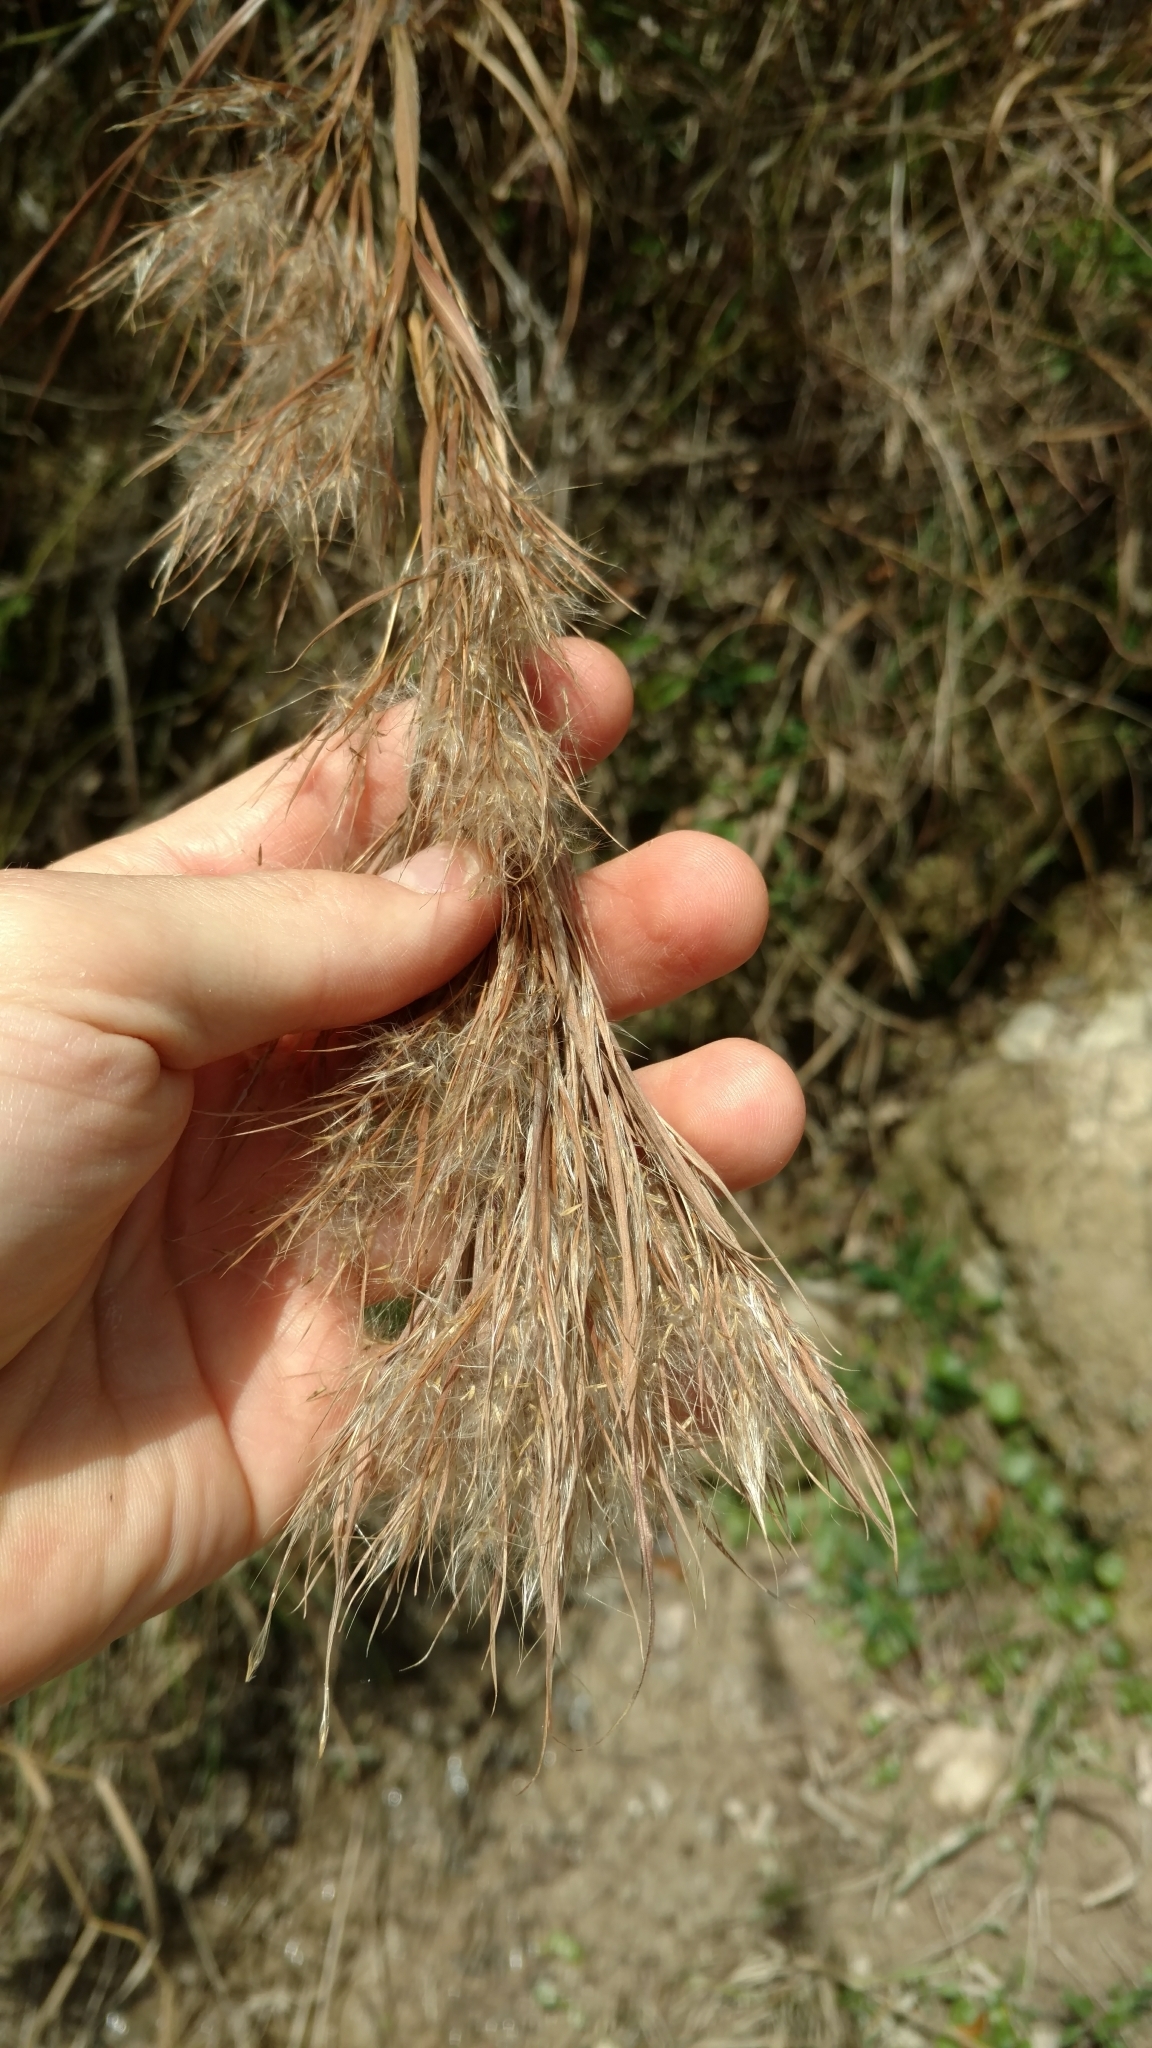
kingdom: Plantae
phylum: Tracheophyta
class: Liliopsida
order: Poales
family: Poaceae
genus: Andropogon
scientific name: Andropogon tenuispatheus
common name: Bushy bluestem
